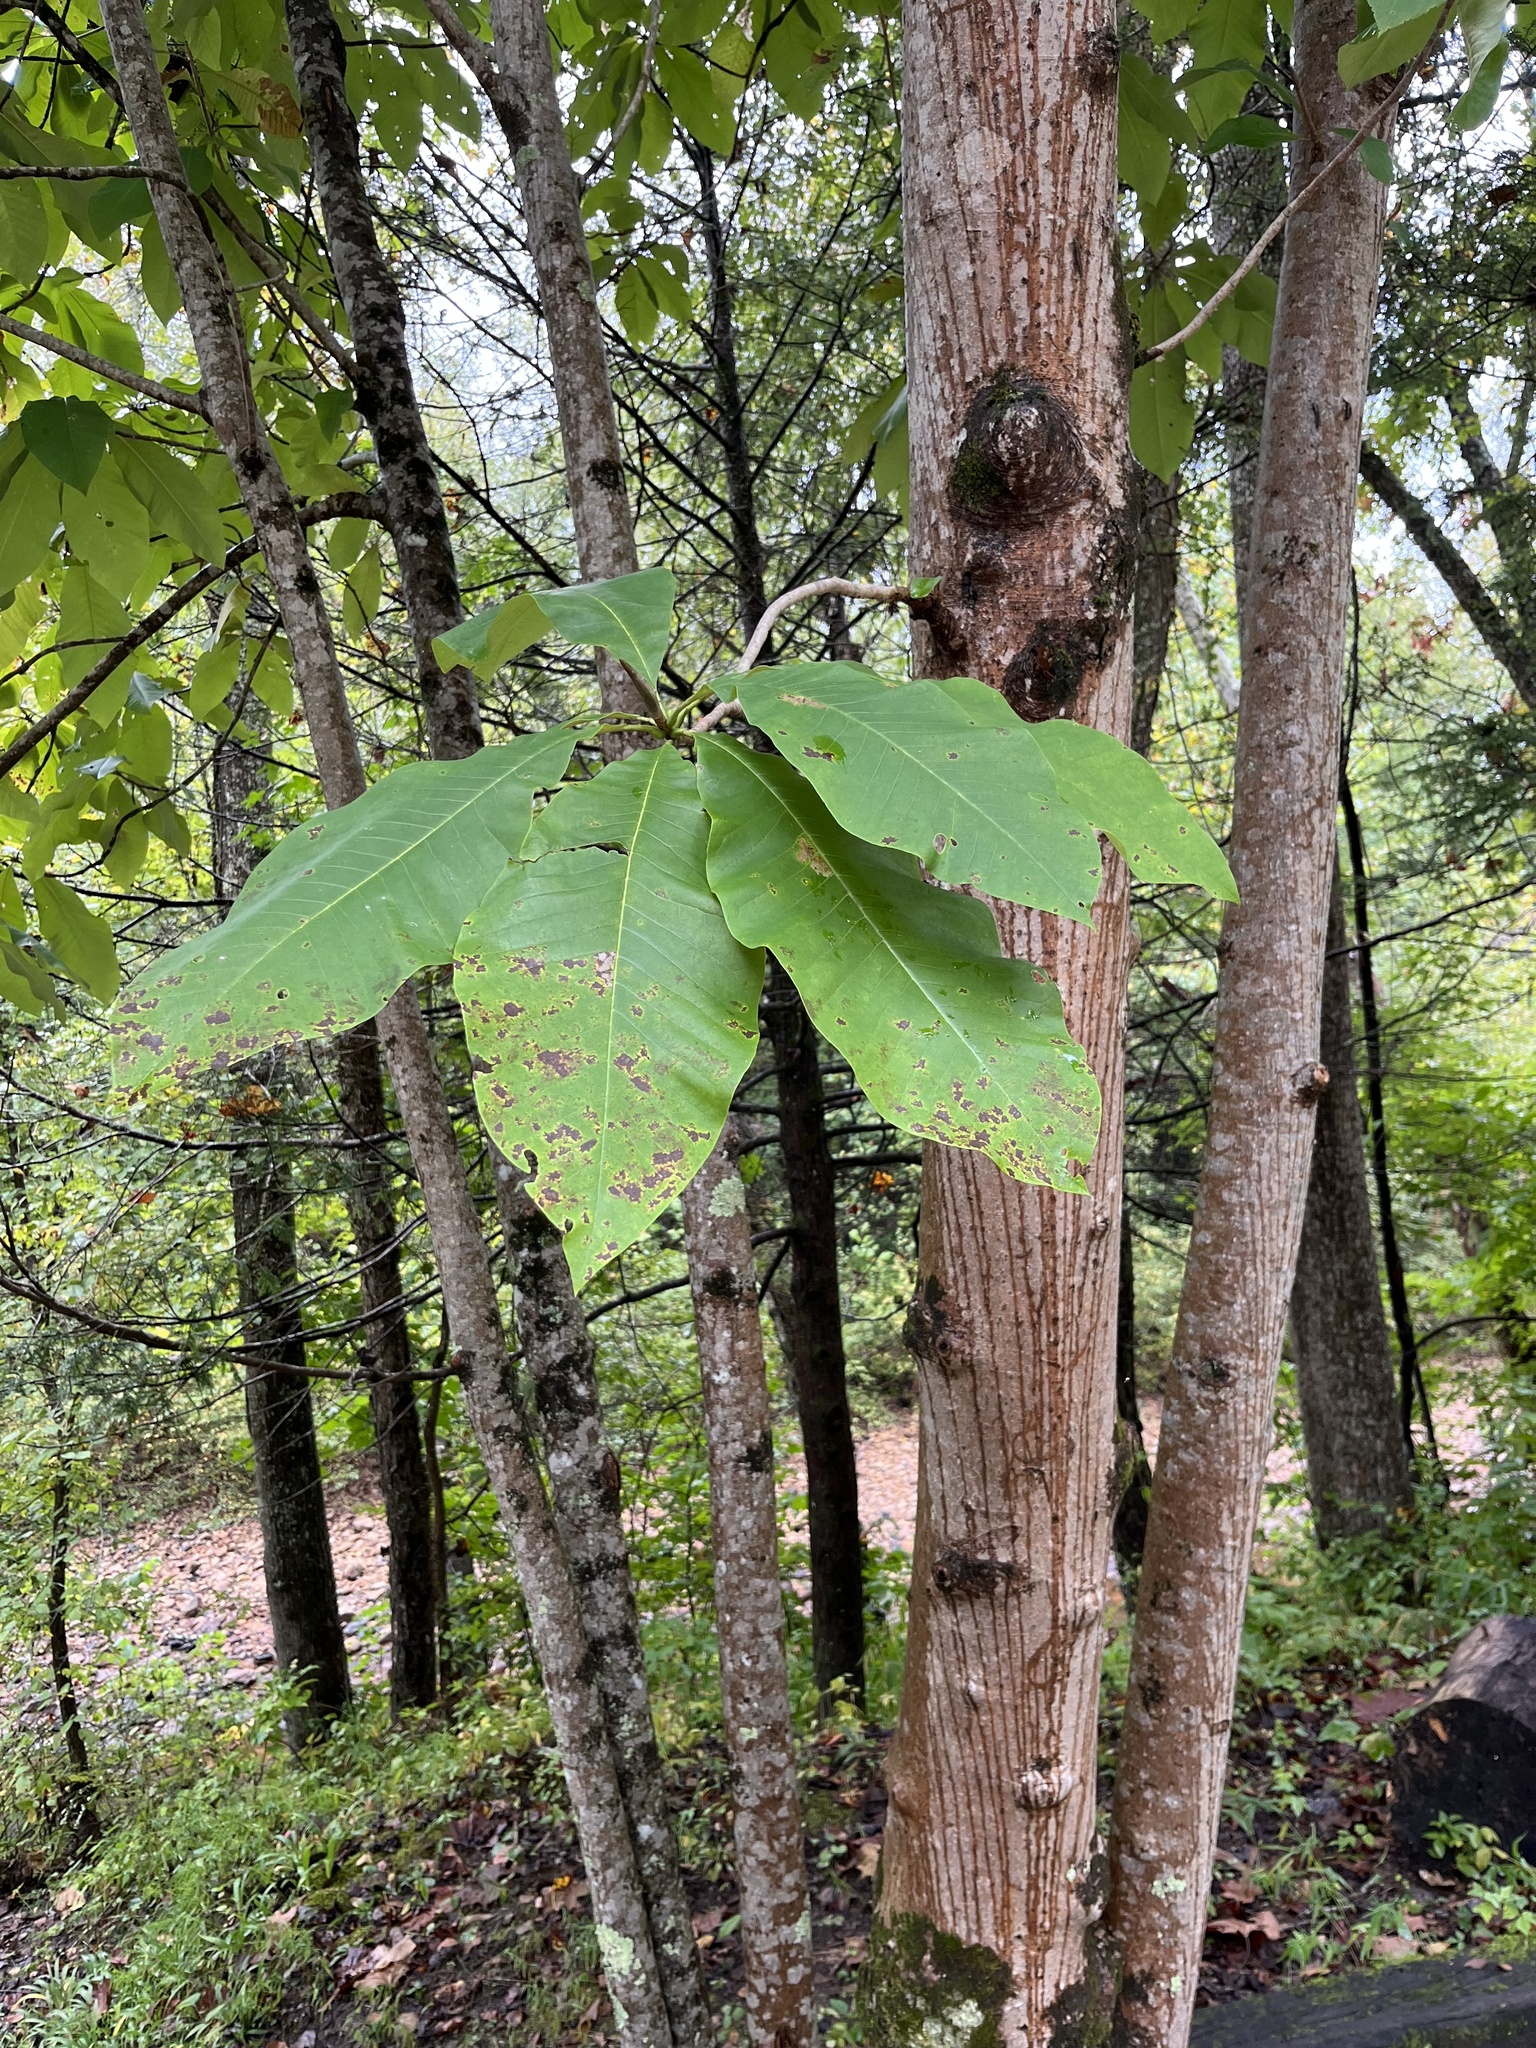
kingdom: Plantae
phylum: Tracheophyta
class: Magnoliopsida
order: Magnoliales
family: Magnoliaceae
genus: Magnolia
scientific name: Magnolia tripetala
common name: Umbrella magnolia
